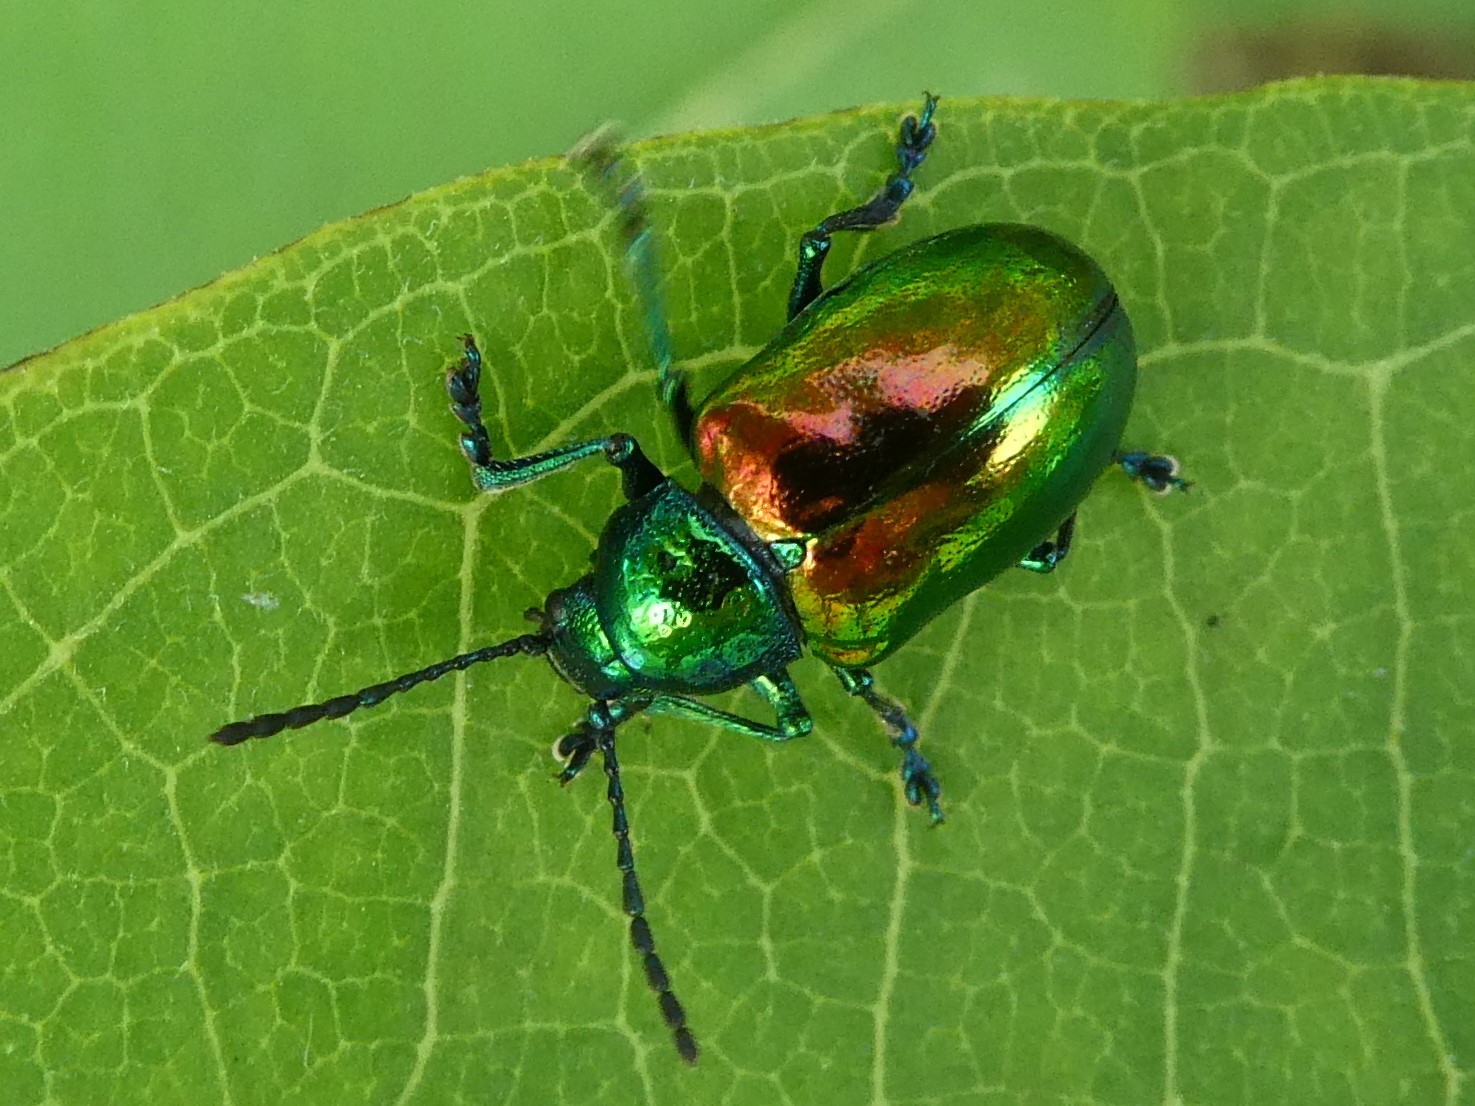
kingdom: Animalia
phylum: Arthropoda
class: Insecta
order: Coleoptera
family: Chrysomelidae
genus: Chrysochus
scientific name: Chrysochus auratus
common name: Dogbane leaf beetle
